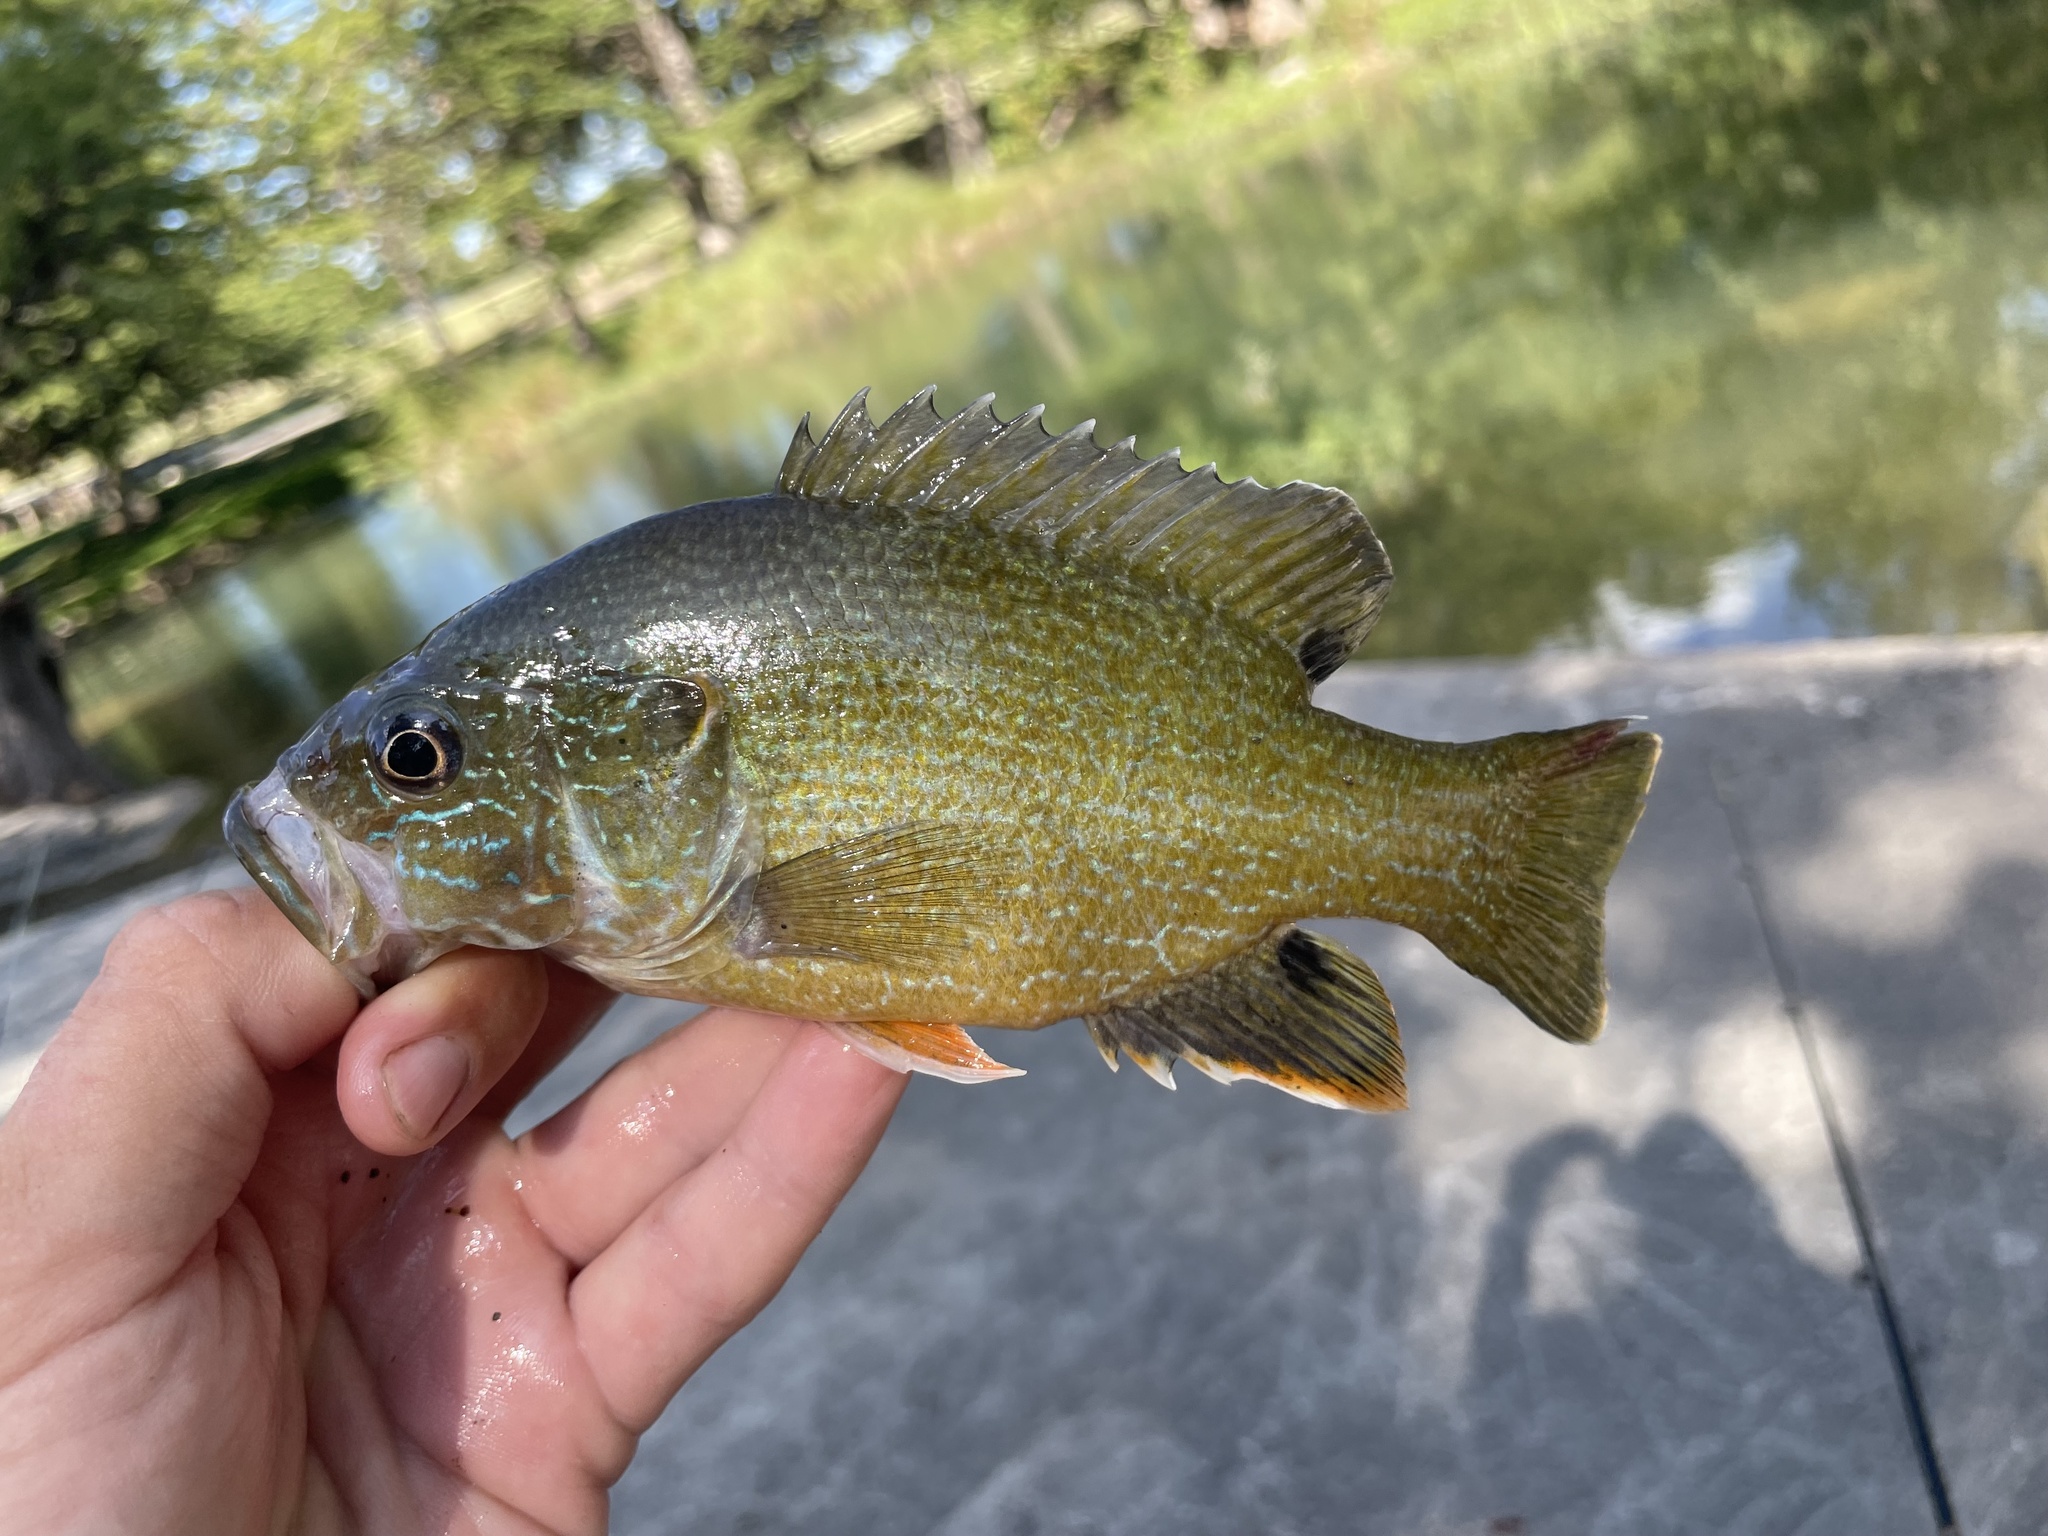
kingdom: Animalia
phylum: Chordata
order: Perciformes
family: Centrarchidae
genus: Lepomis
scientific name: Lepomis cyanellus
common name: Green sunfish
